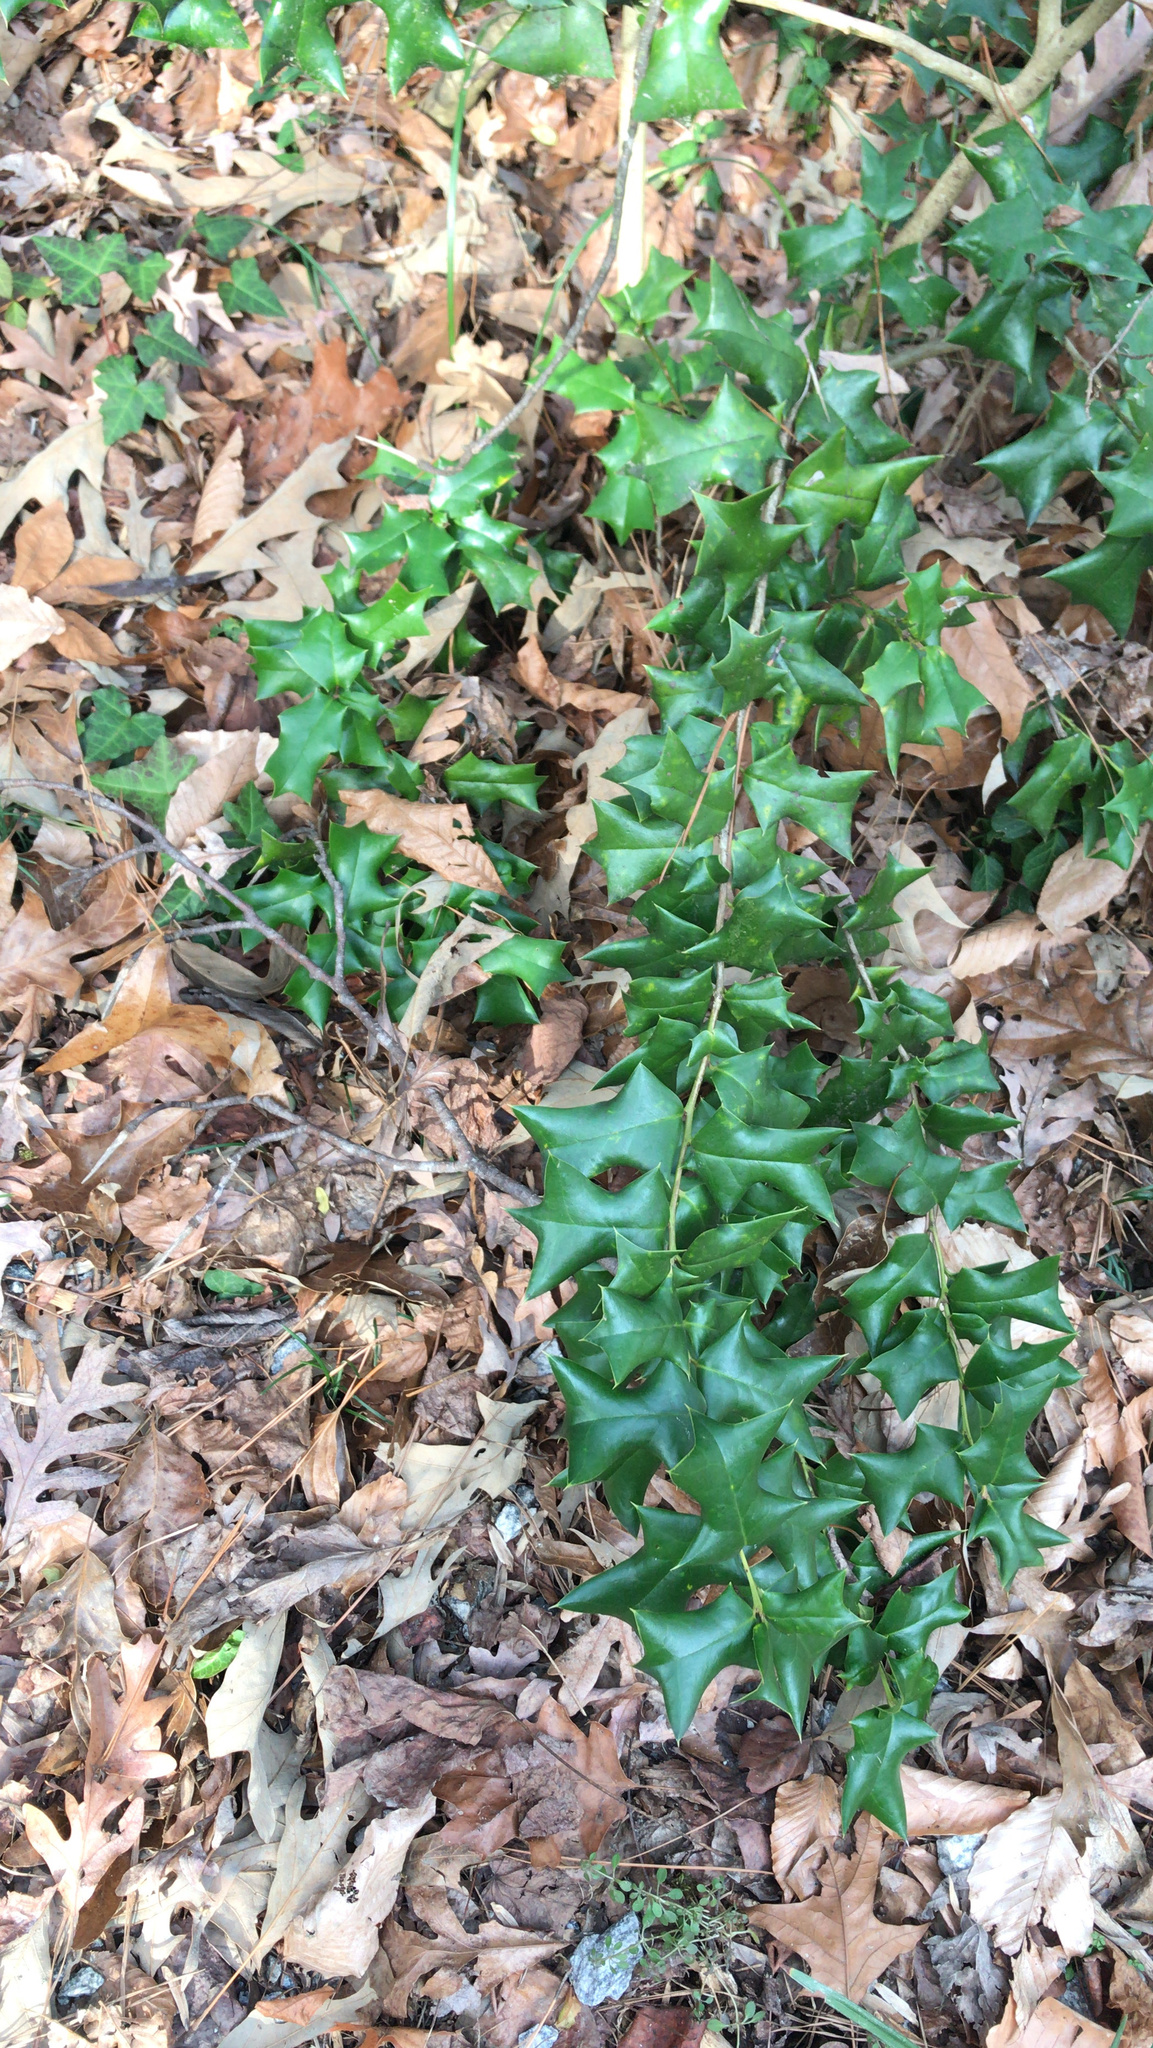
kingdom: Plantae
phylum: Tracheophyta
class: Magnoliopsida
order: Aquifoliales
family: Aquifoliaceae
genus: Ilex
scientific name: Ilex cornuta
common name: Chinese holly
